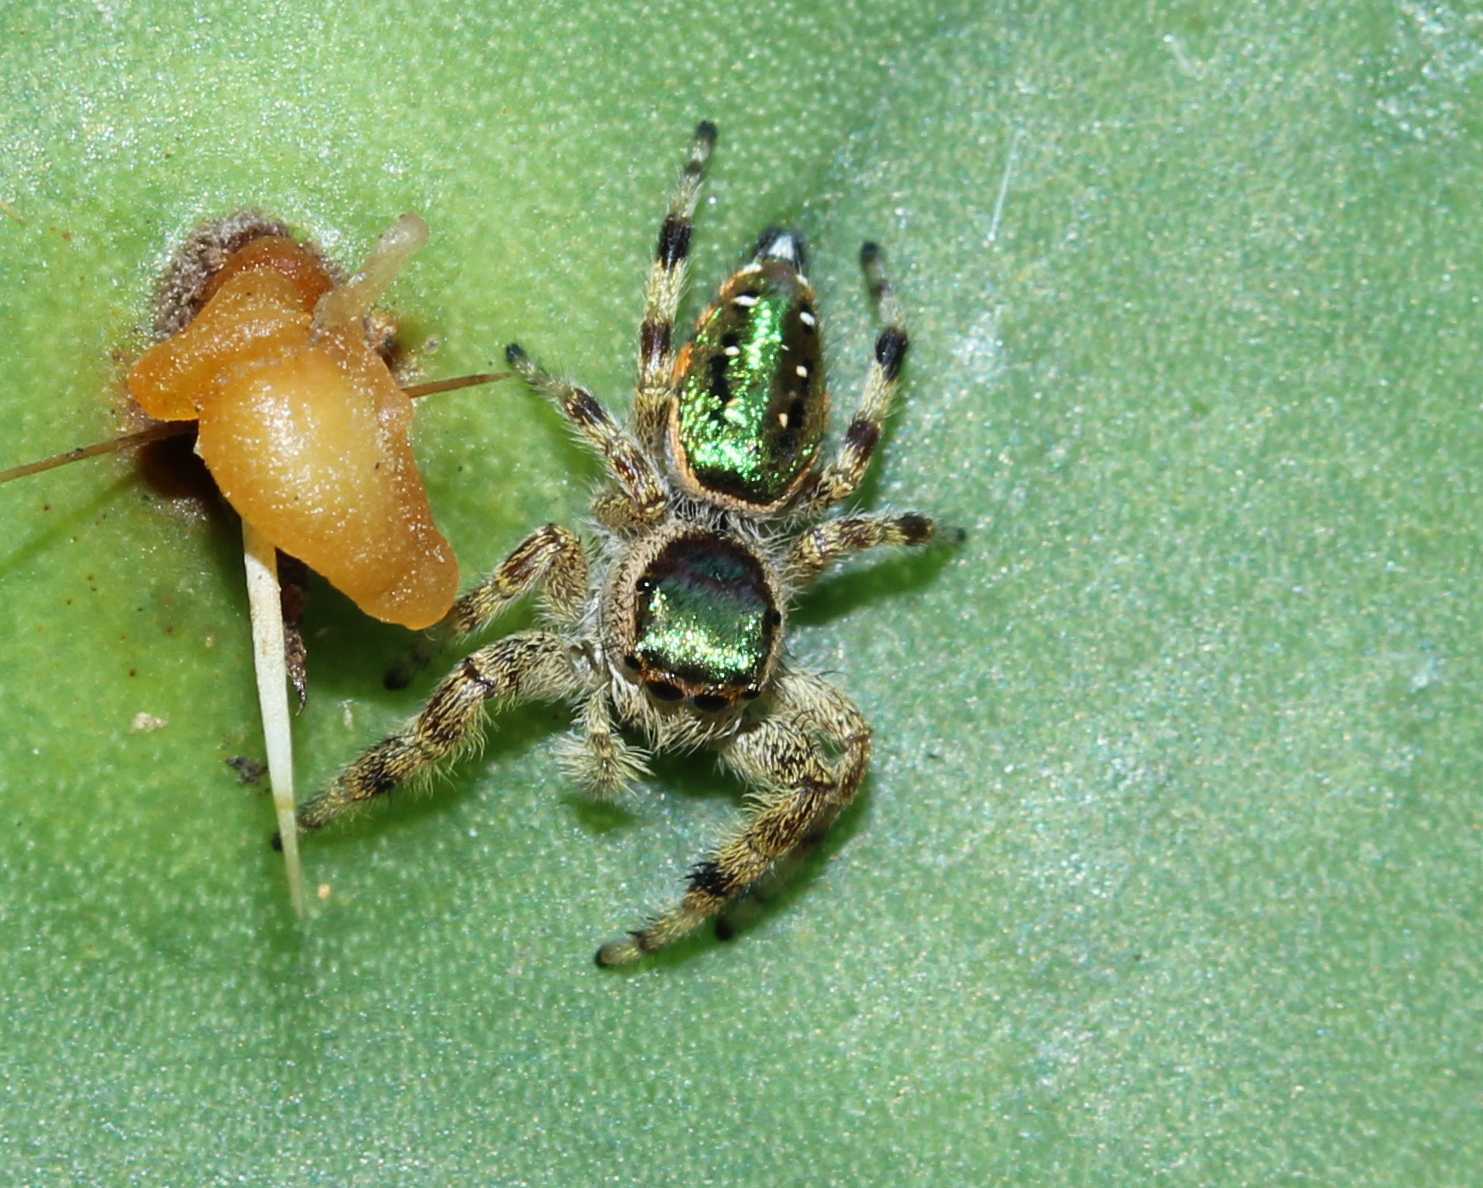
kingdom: Animalia
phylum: Arthropoda
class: Arachnida
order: Araneae
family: Salticidae
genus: Paraphidippus
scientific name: Paraphidippus aurantius
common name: Jumping spiders
